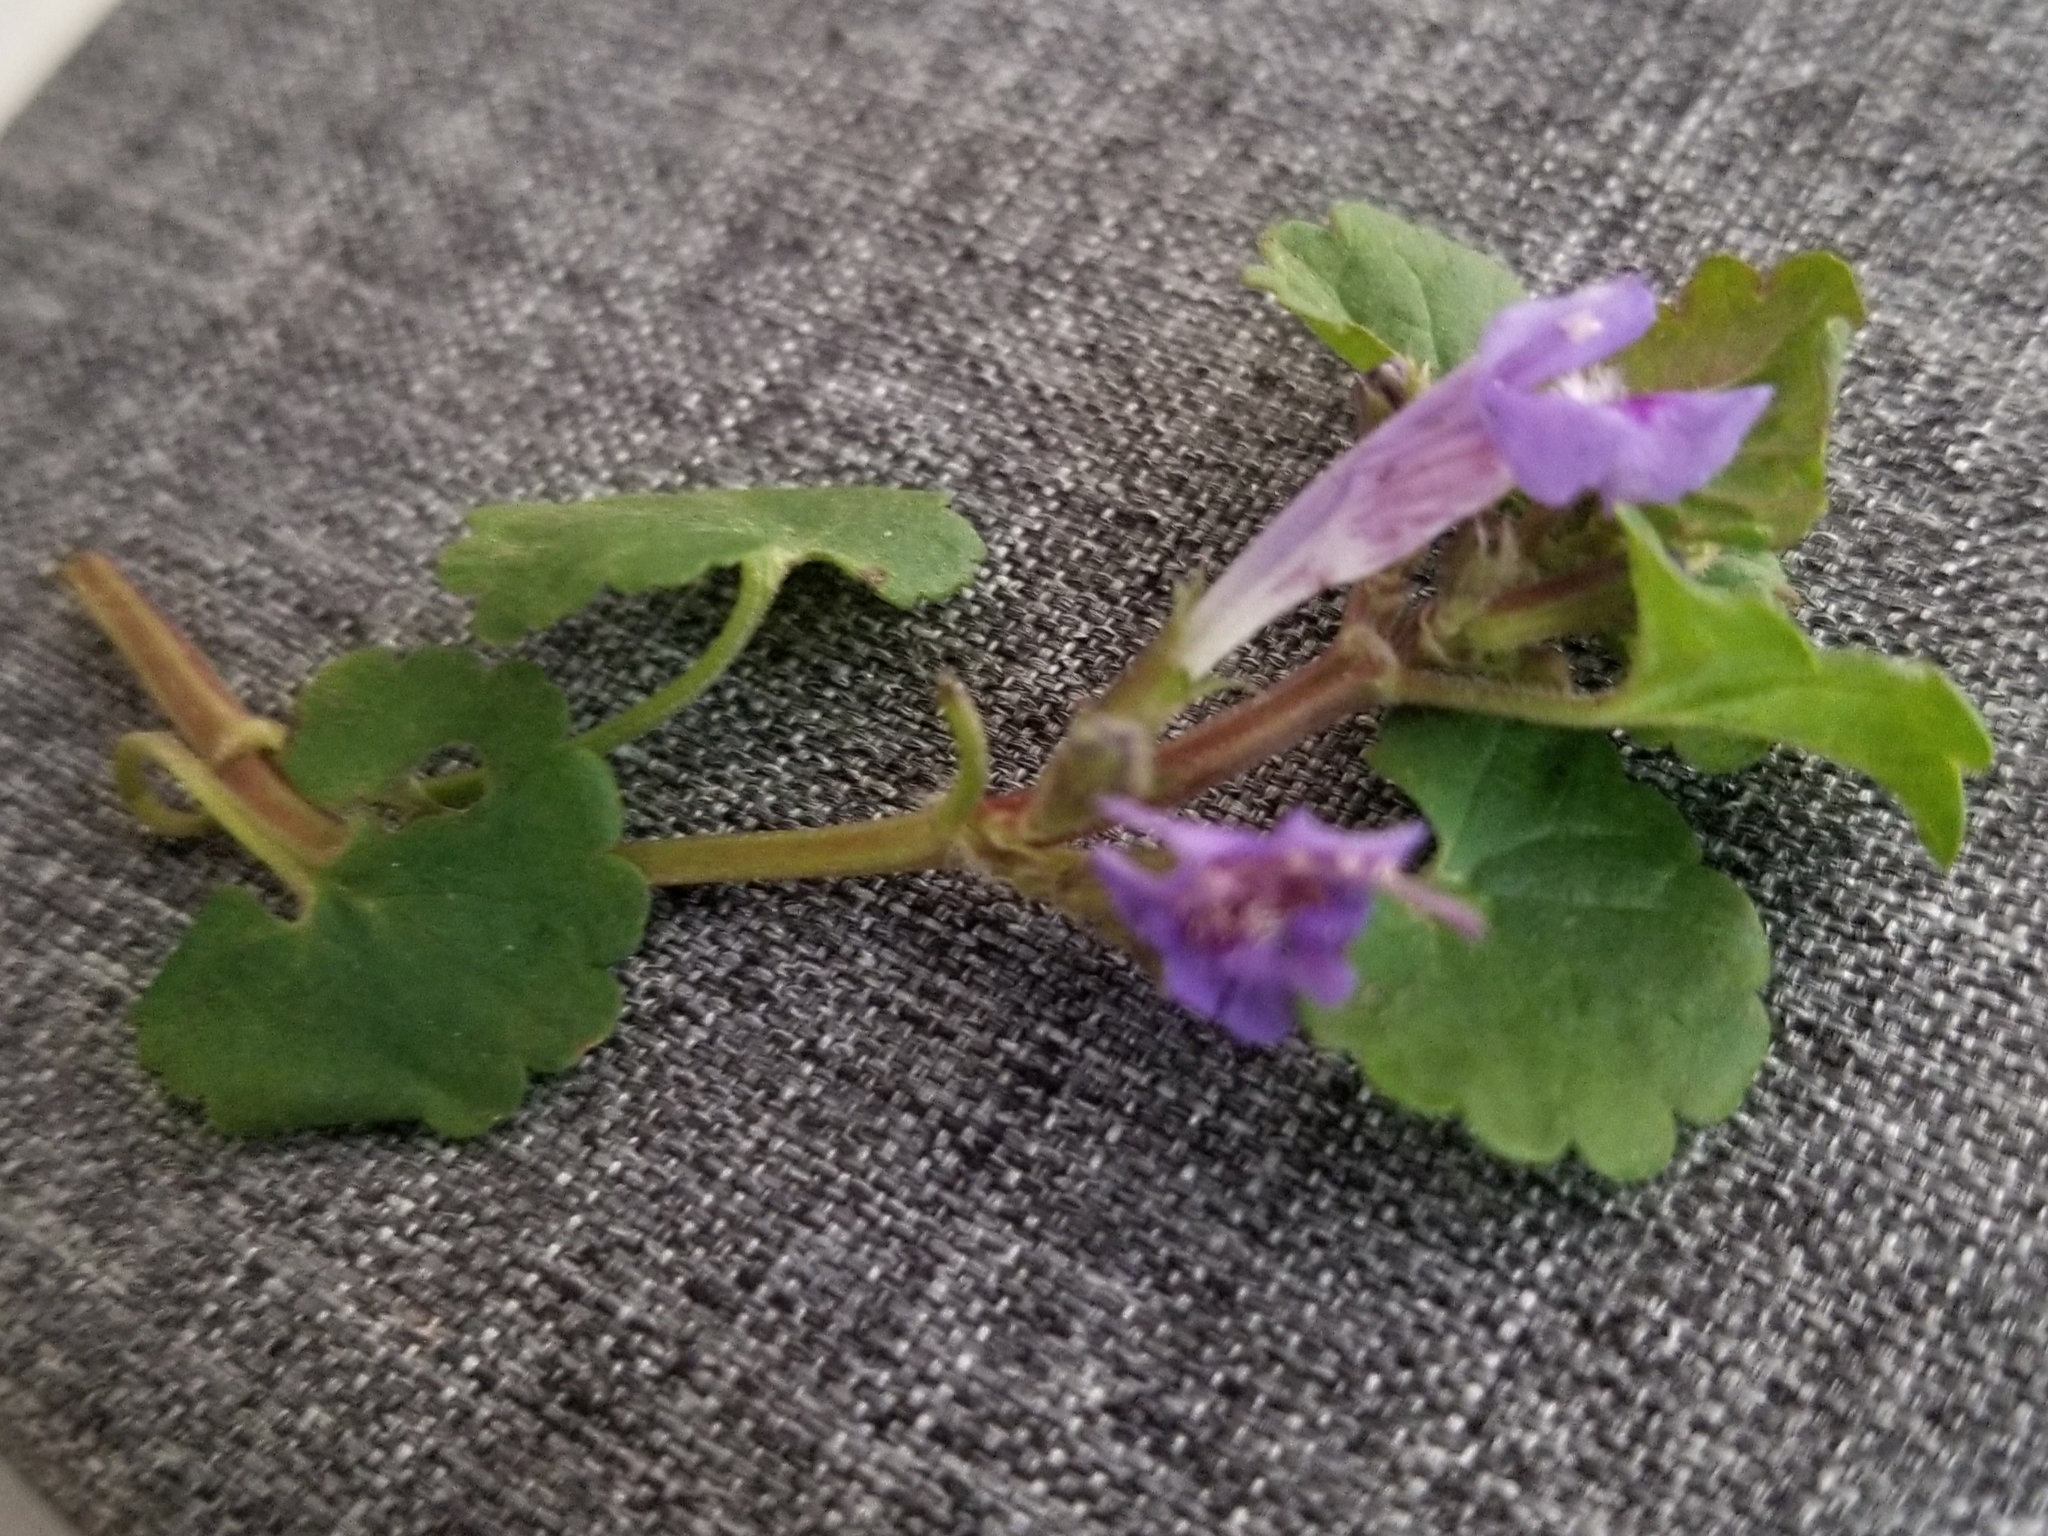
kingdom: Plantae
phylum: Tracheophyta
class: Magnoliopsida
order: Lamiales
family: Lamiaceae
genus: Glechoma
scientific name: Glechoma hederacea
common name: Ground ivy
